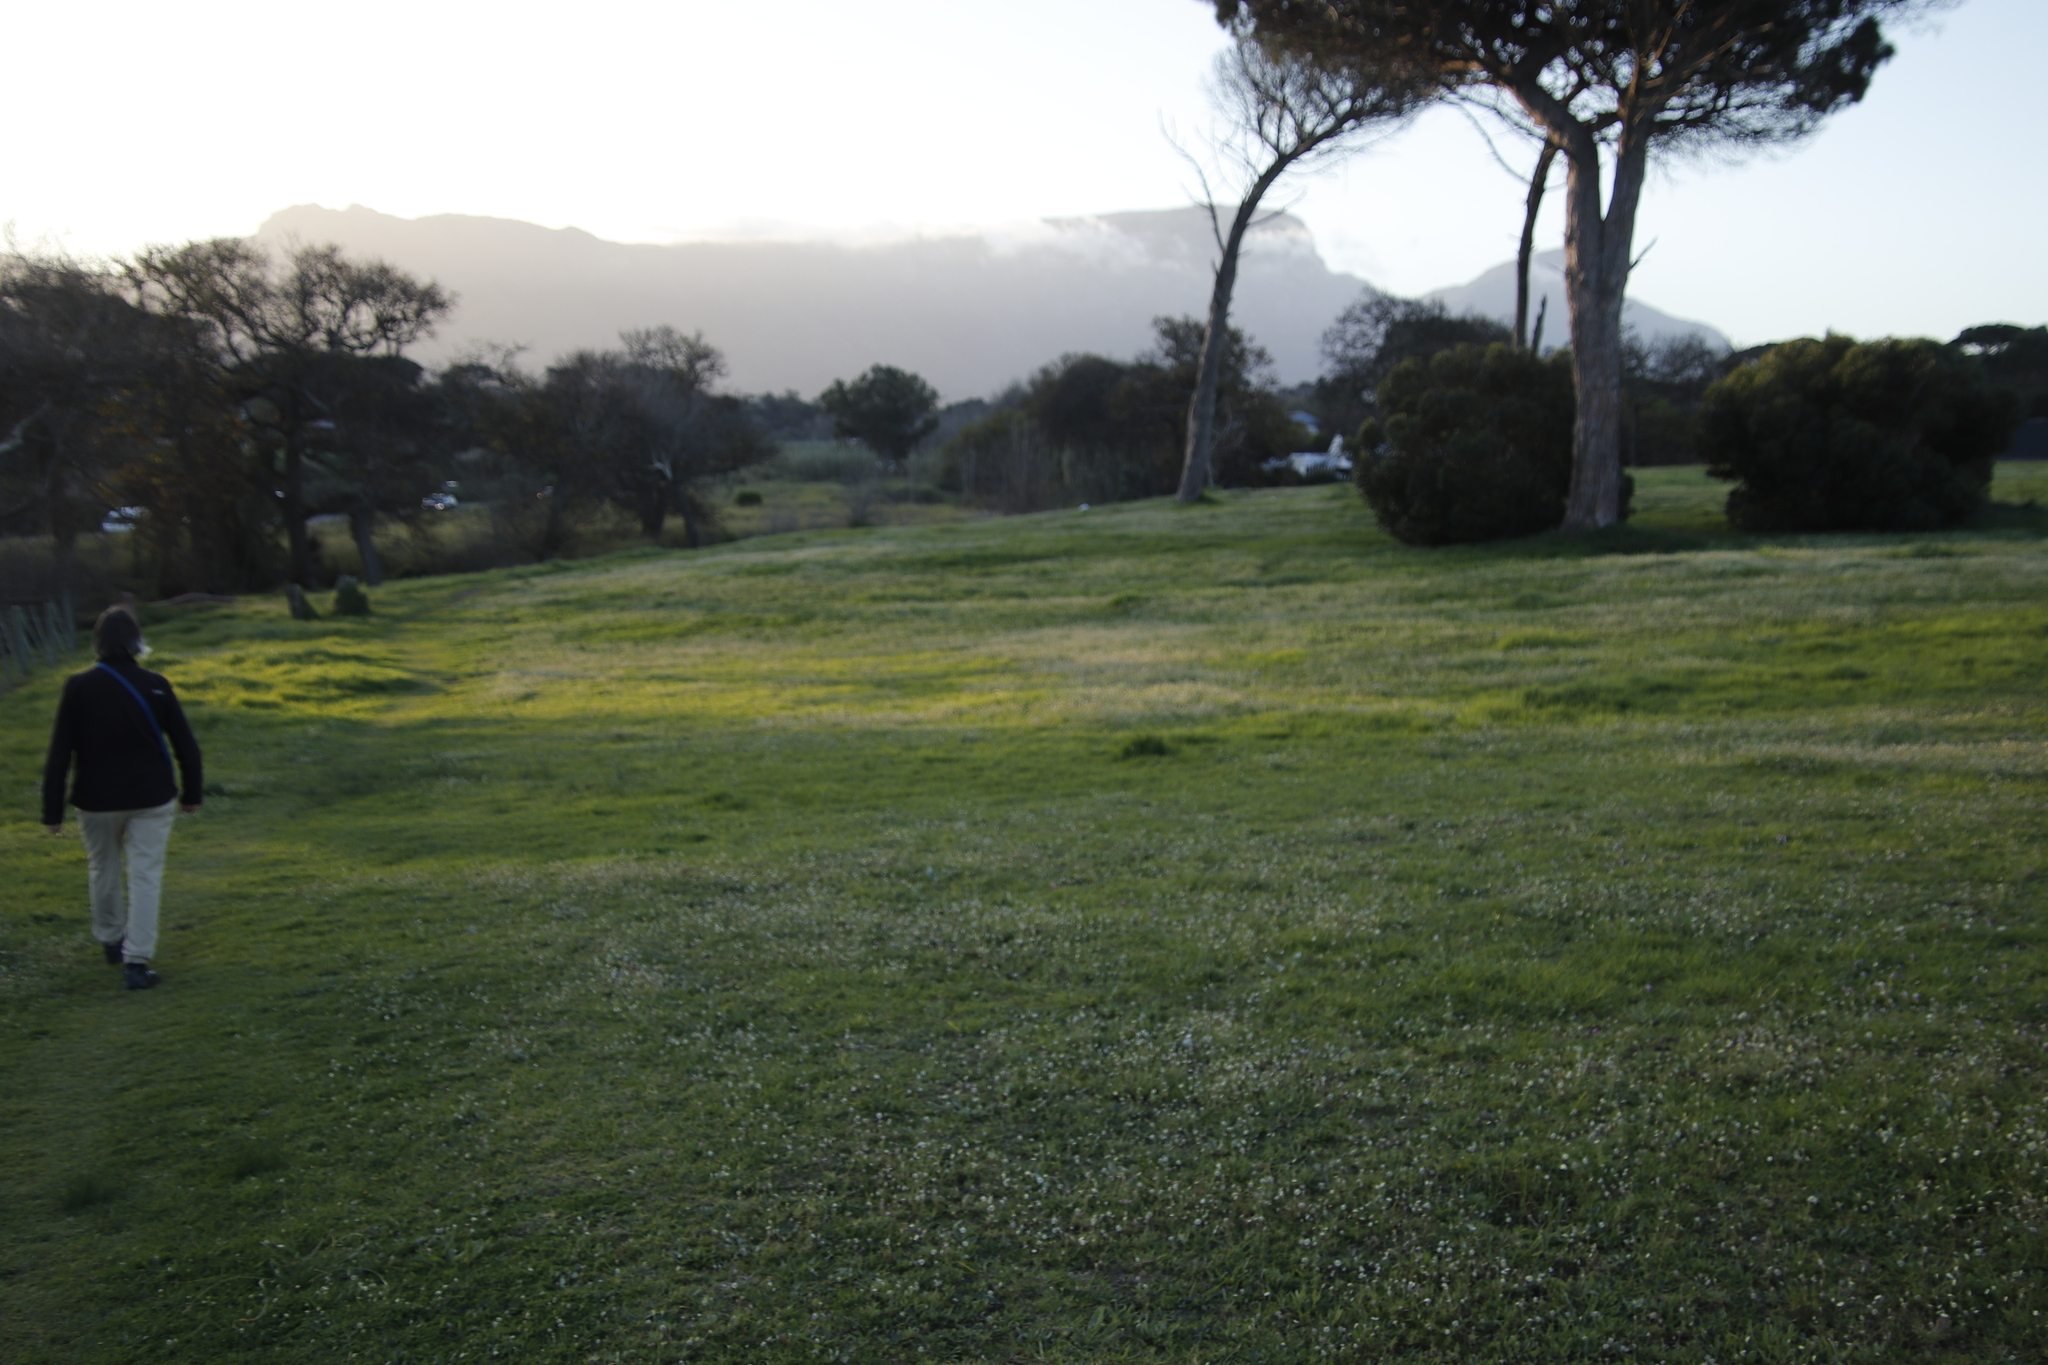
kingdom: Plantae
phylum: Tracheophyta
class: Magnoliopsida
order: Asterales
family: Asteraceae
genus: Cotula
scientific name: Cotula turbinata
